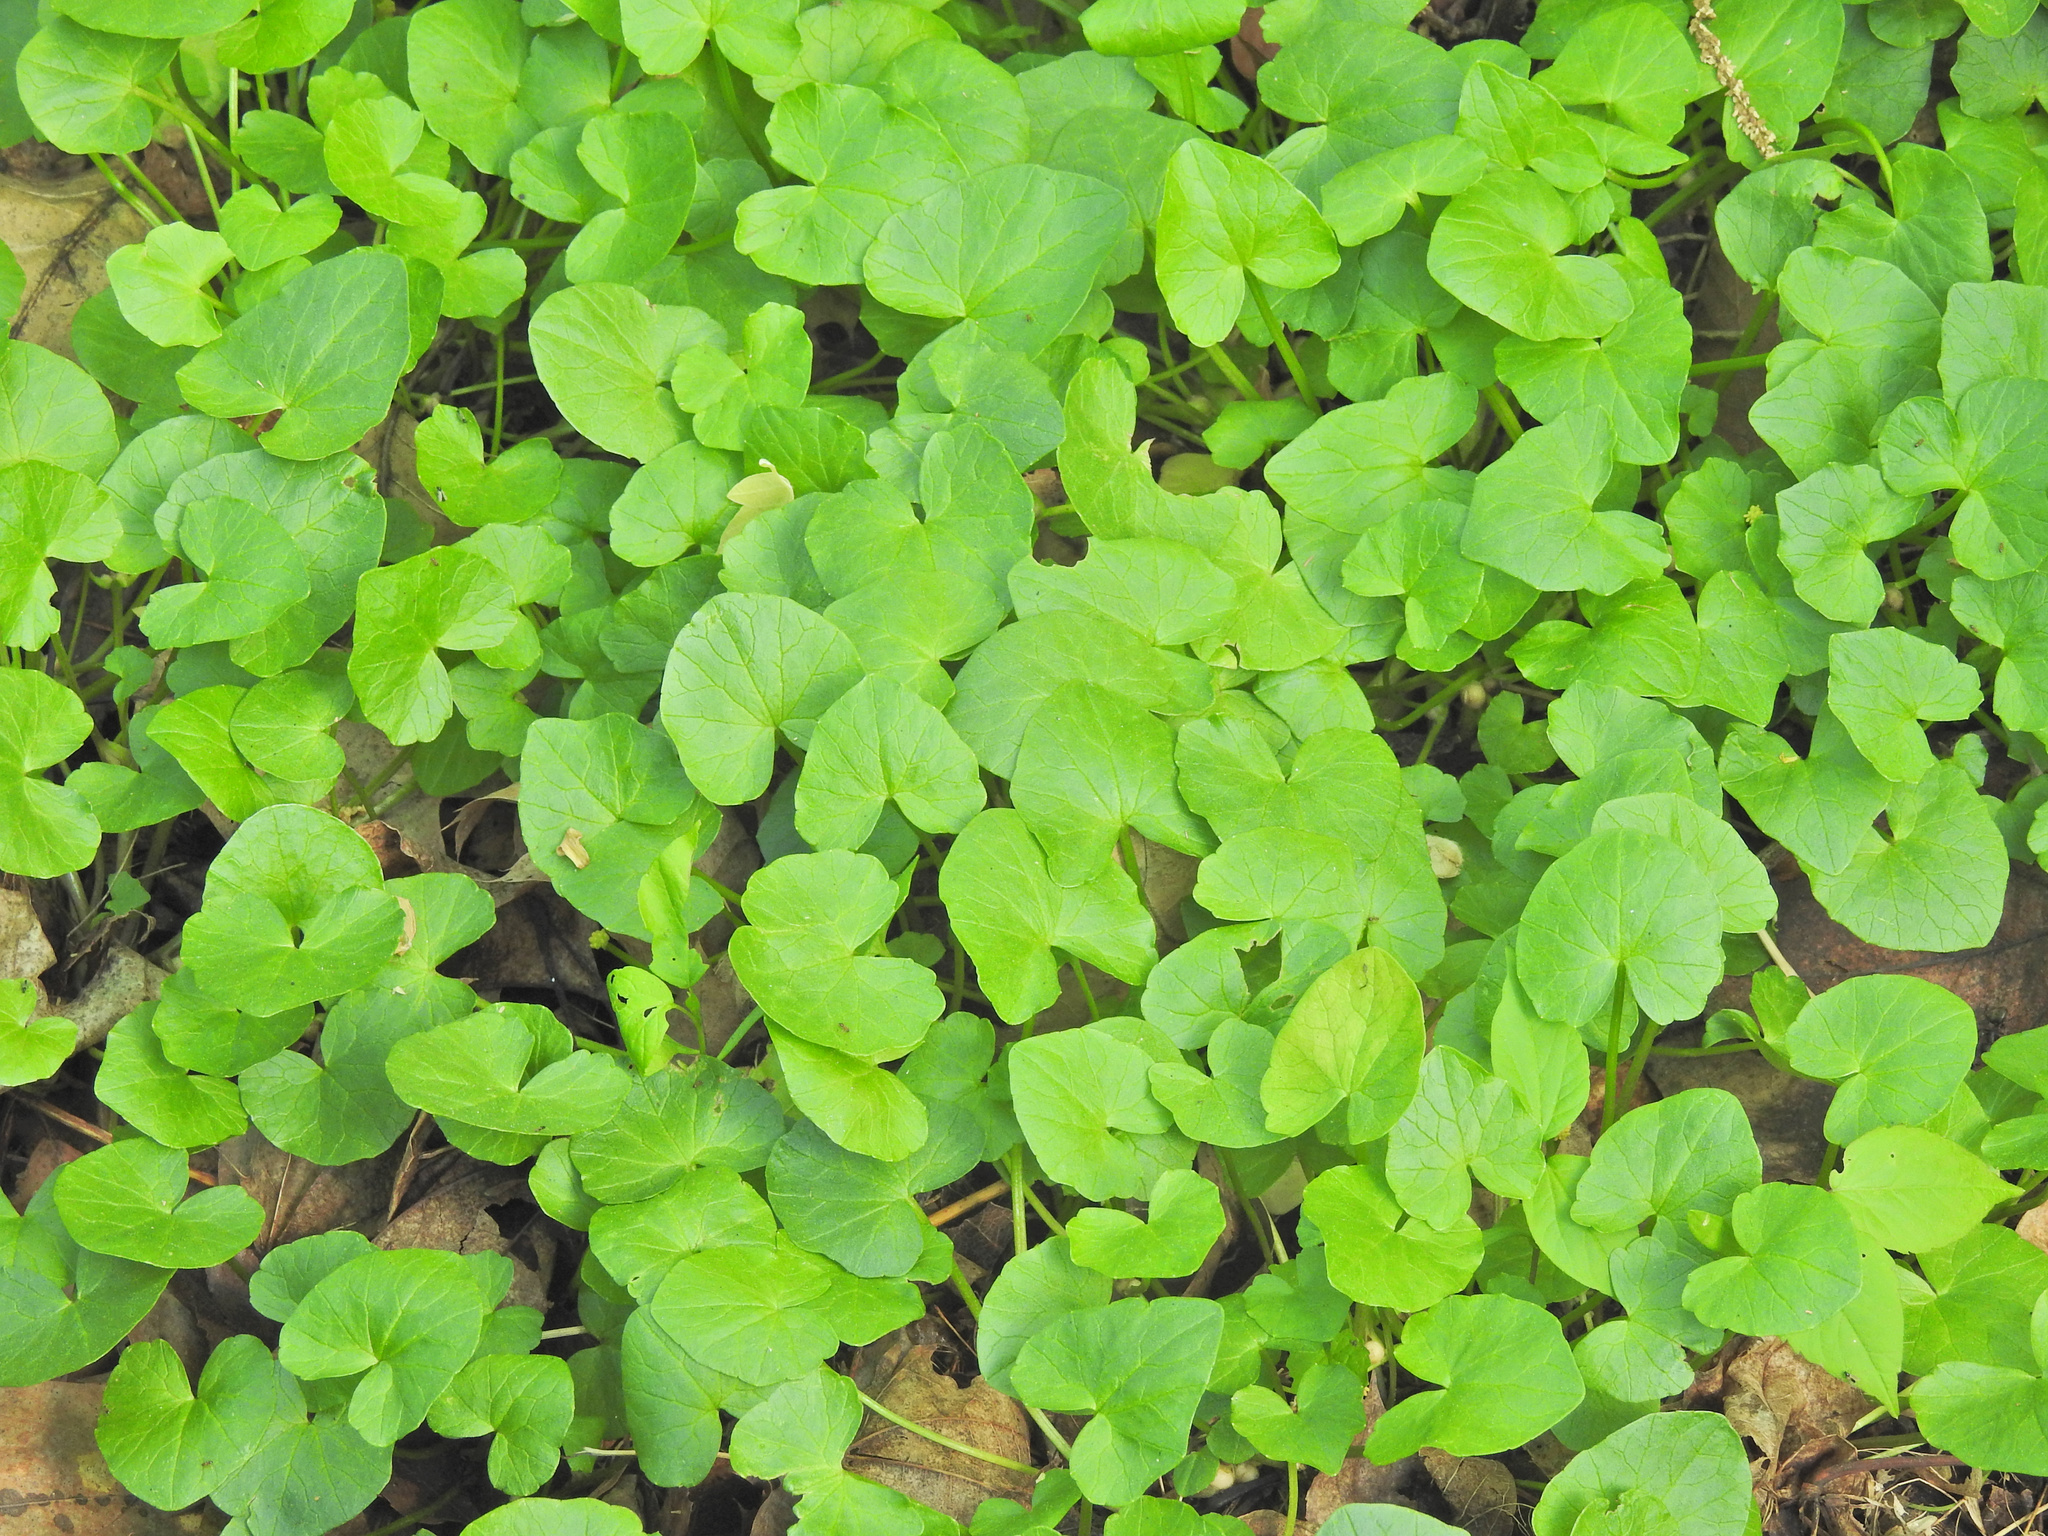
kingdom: Plantae
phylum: Tracheophyta
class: Magnoliopsida
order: Ranunculales
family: Ranunculaceae
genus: Ficaria
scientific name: Ficaria verna
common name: Lesser celandine
